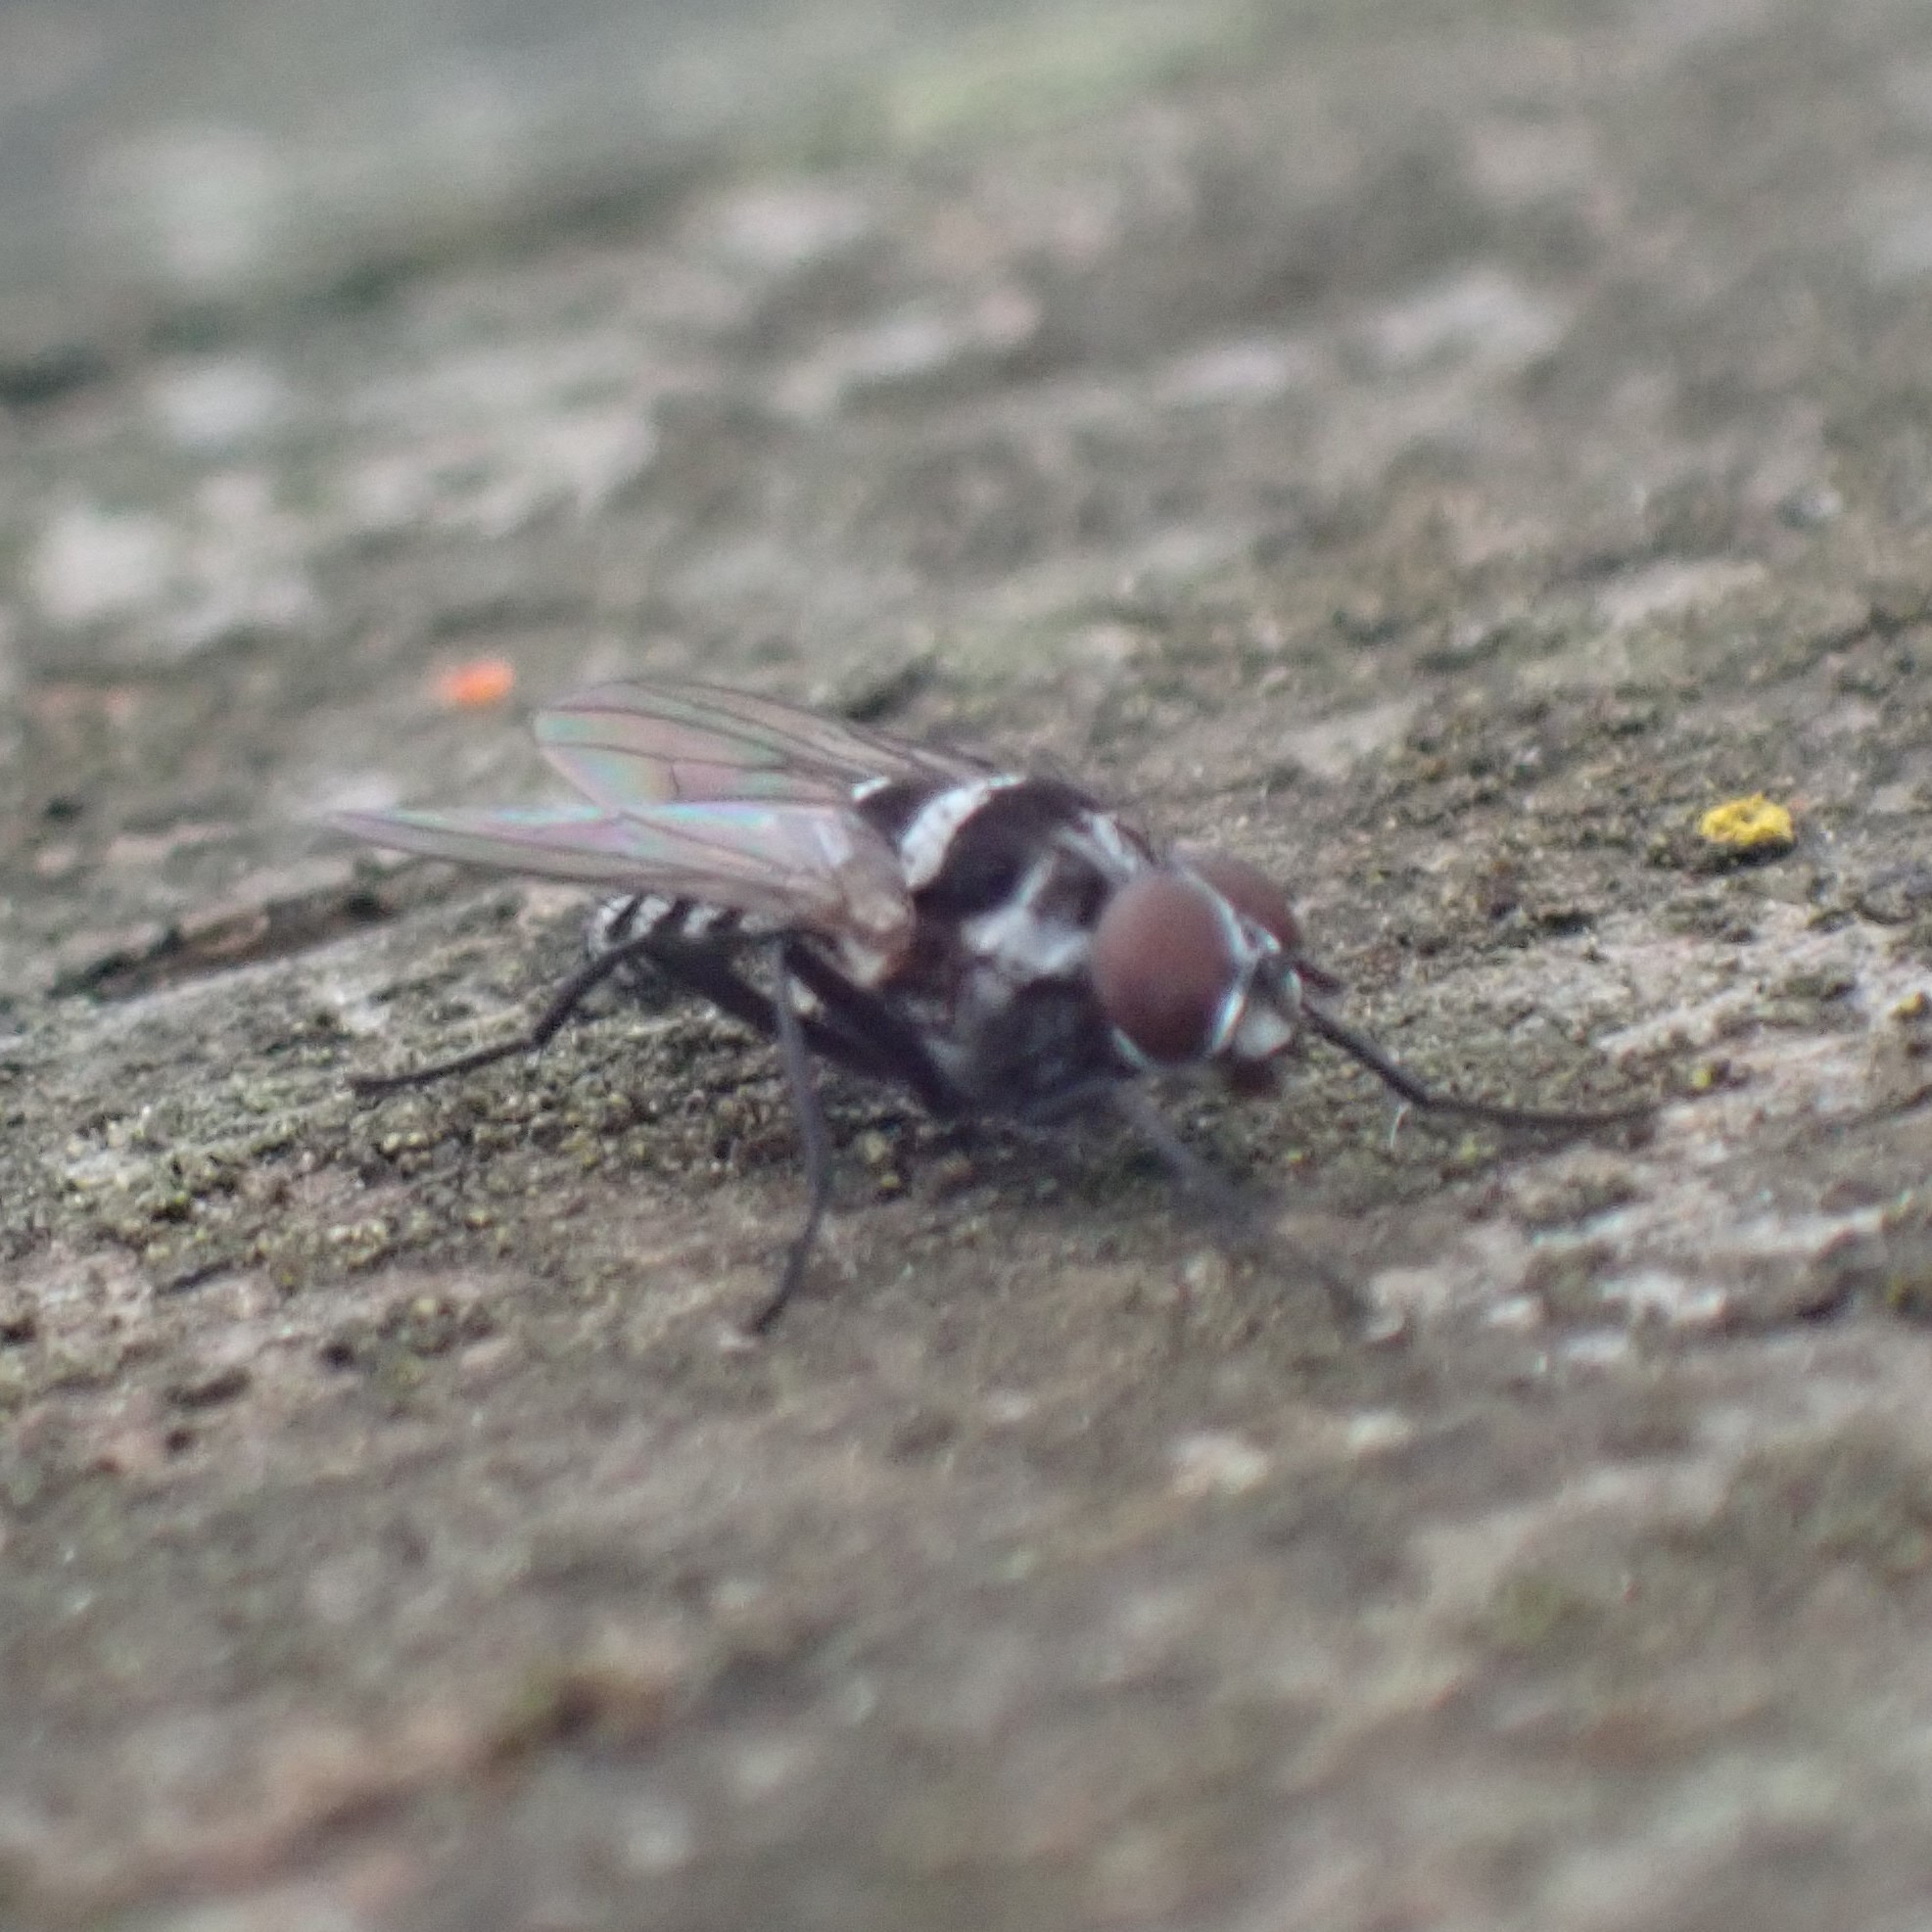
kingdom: Animalia
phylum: Arthropoda
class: Insecta
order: Diptera
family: Anthomyiidae
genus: Anthomyia
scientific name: Anthomyia oculifera
